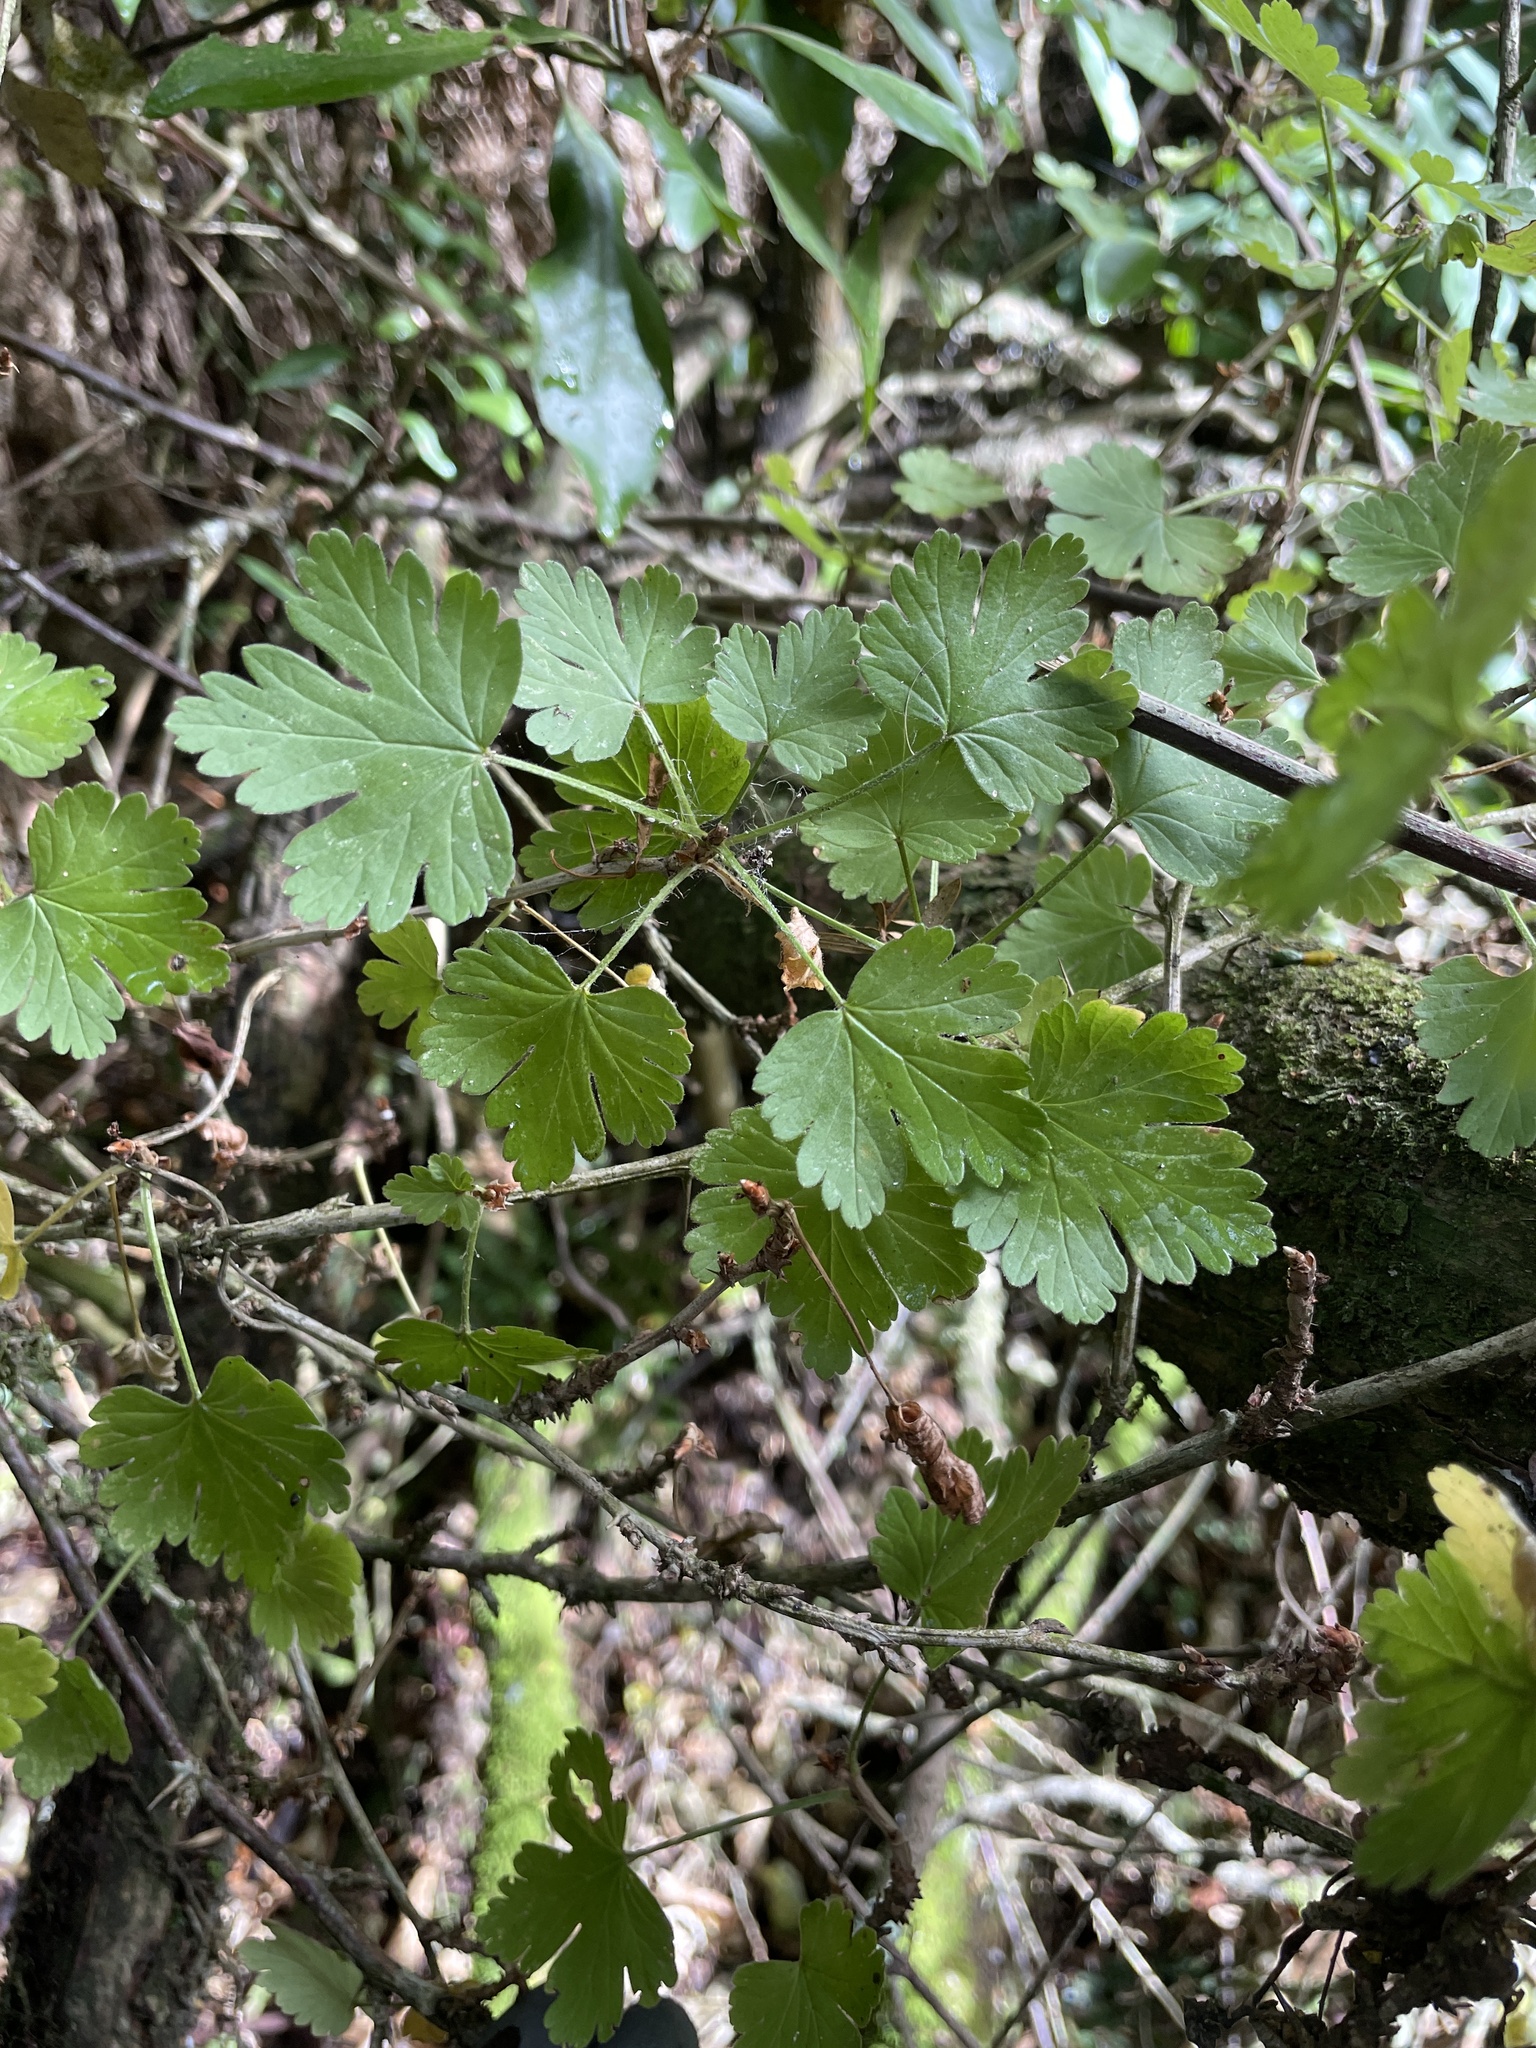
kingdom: Plantae
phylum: Tracheophyta
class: Magnoliopsida
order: Saxifragales
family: Grossulariaceae
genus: Ribes
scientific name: Ribes uva-crispa
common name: Gooseberry
